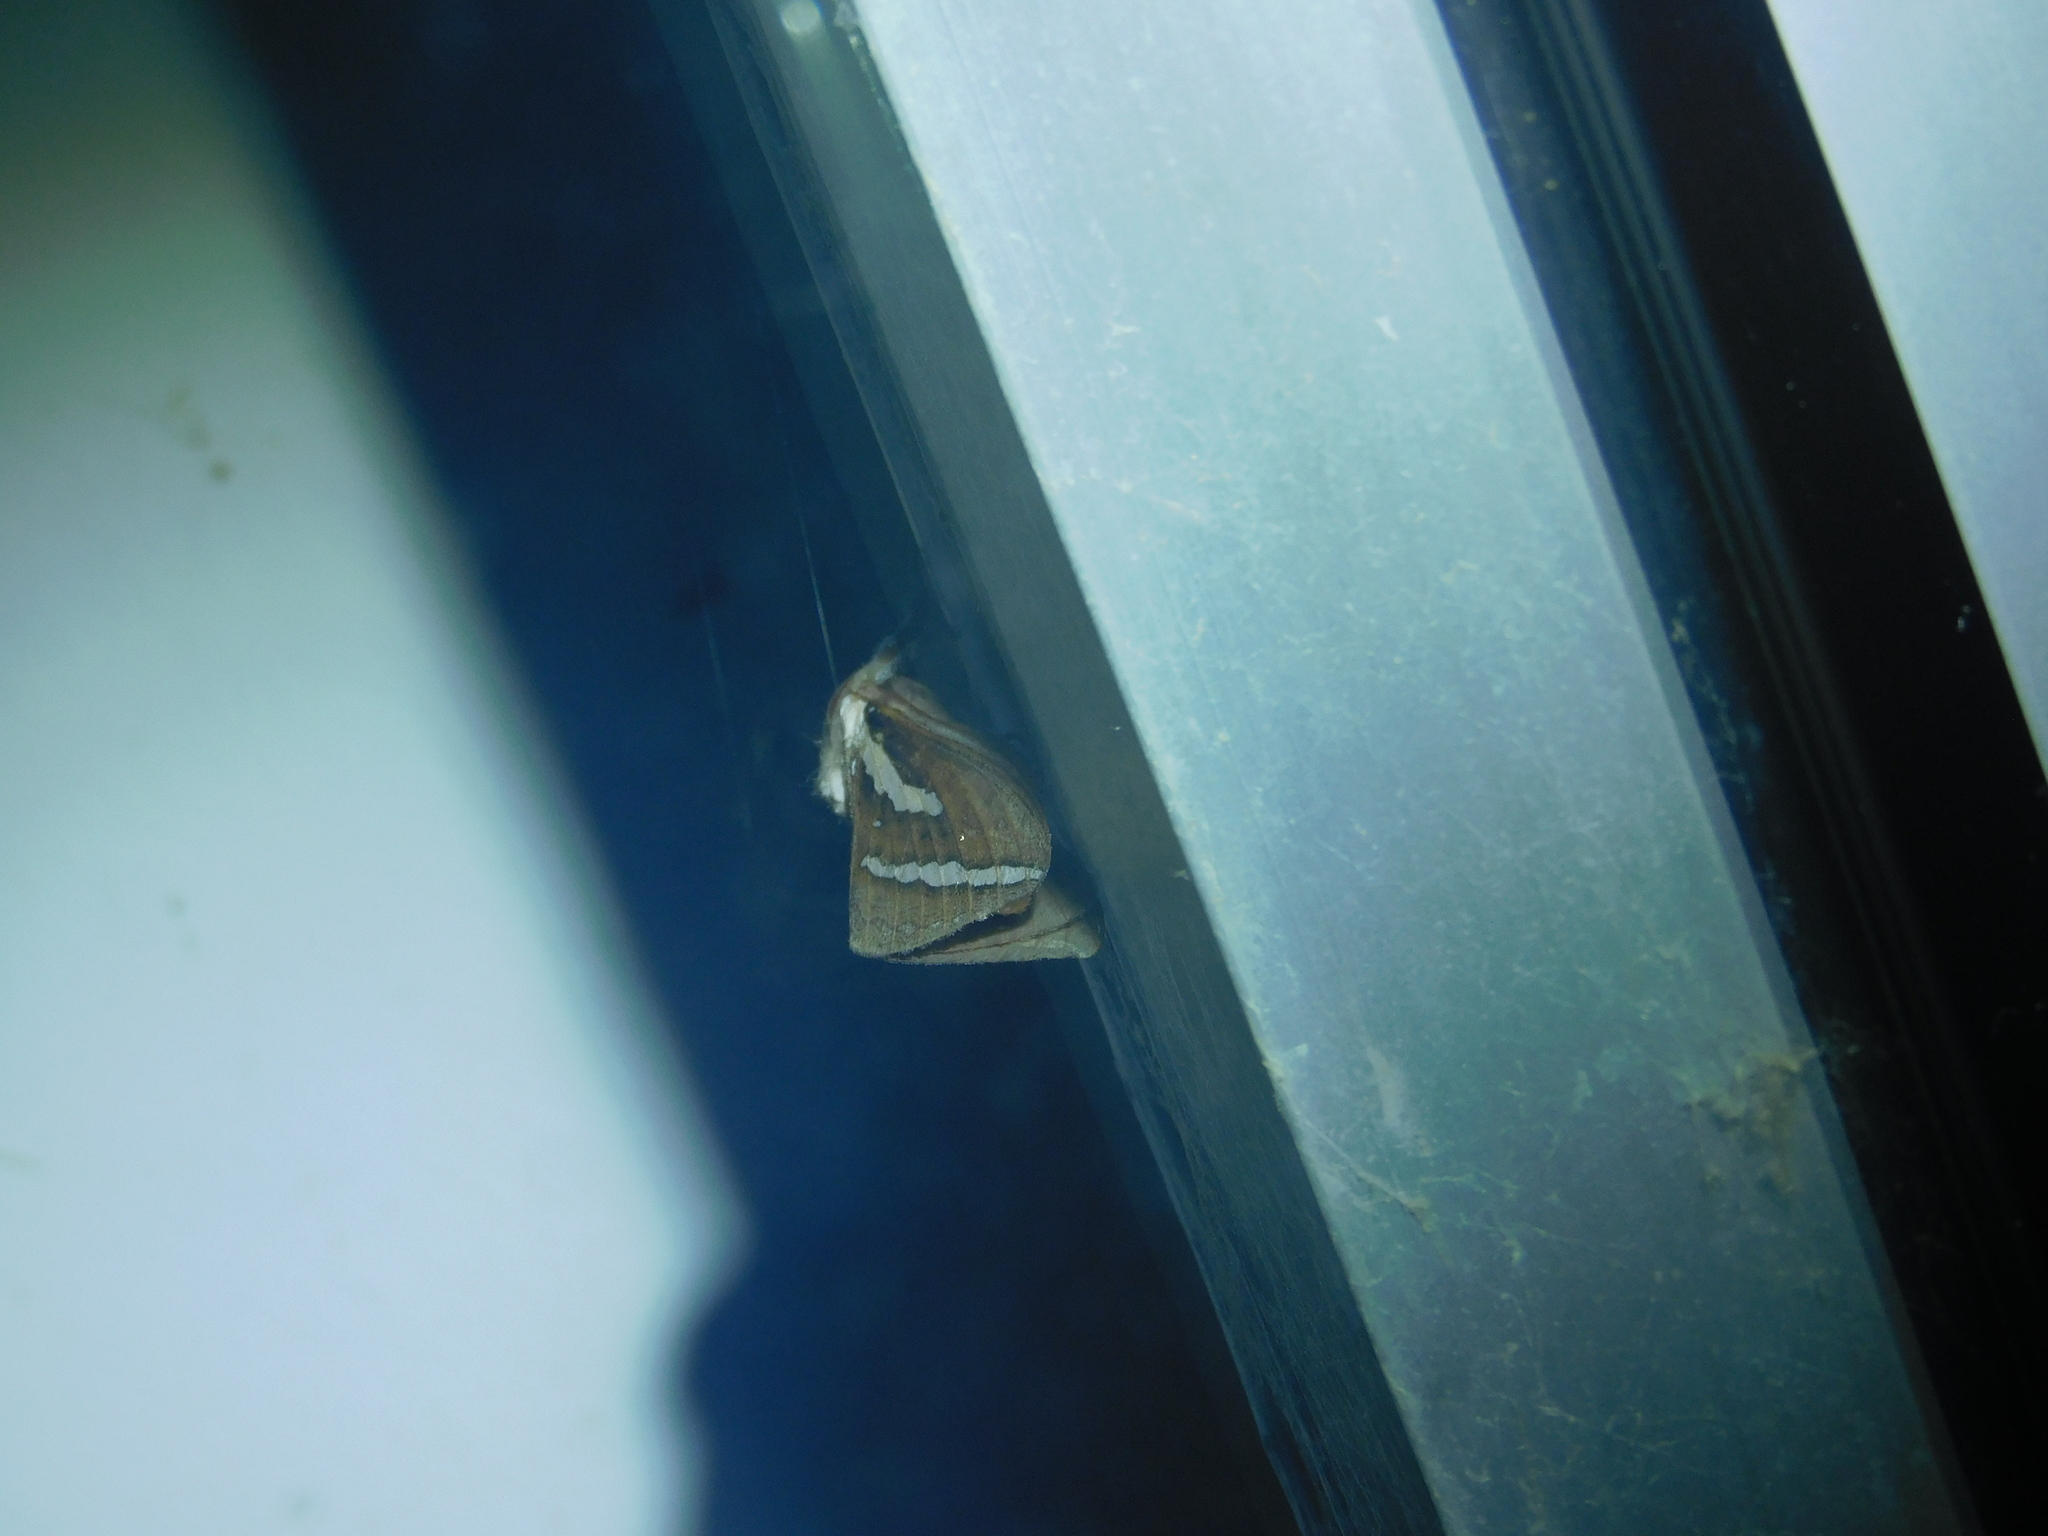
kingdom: Animalia
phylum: Arthropoda
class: Insecta
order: Lepidoptera
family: Hepialidae
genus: Abantiades
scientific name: Abantiades latipennis
